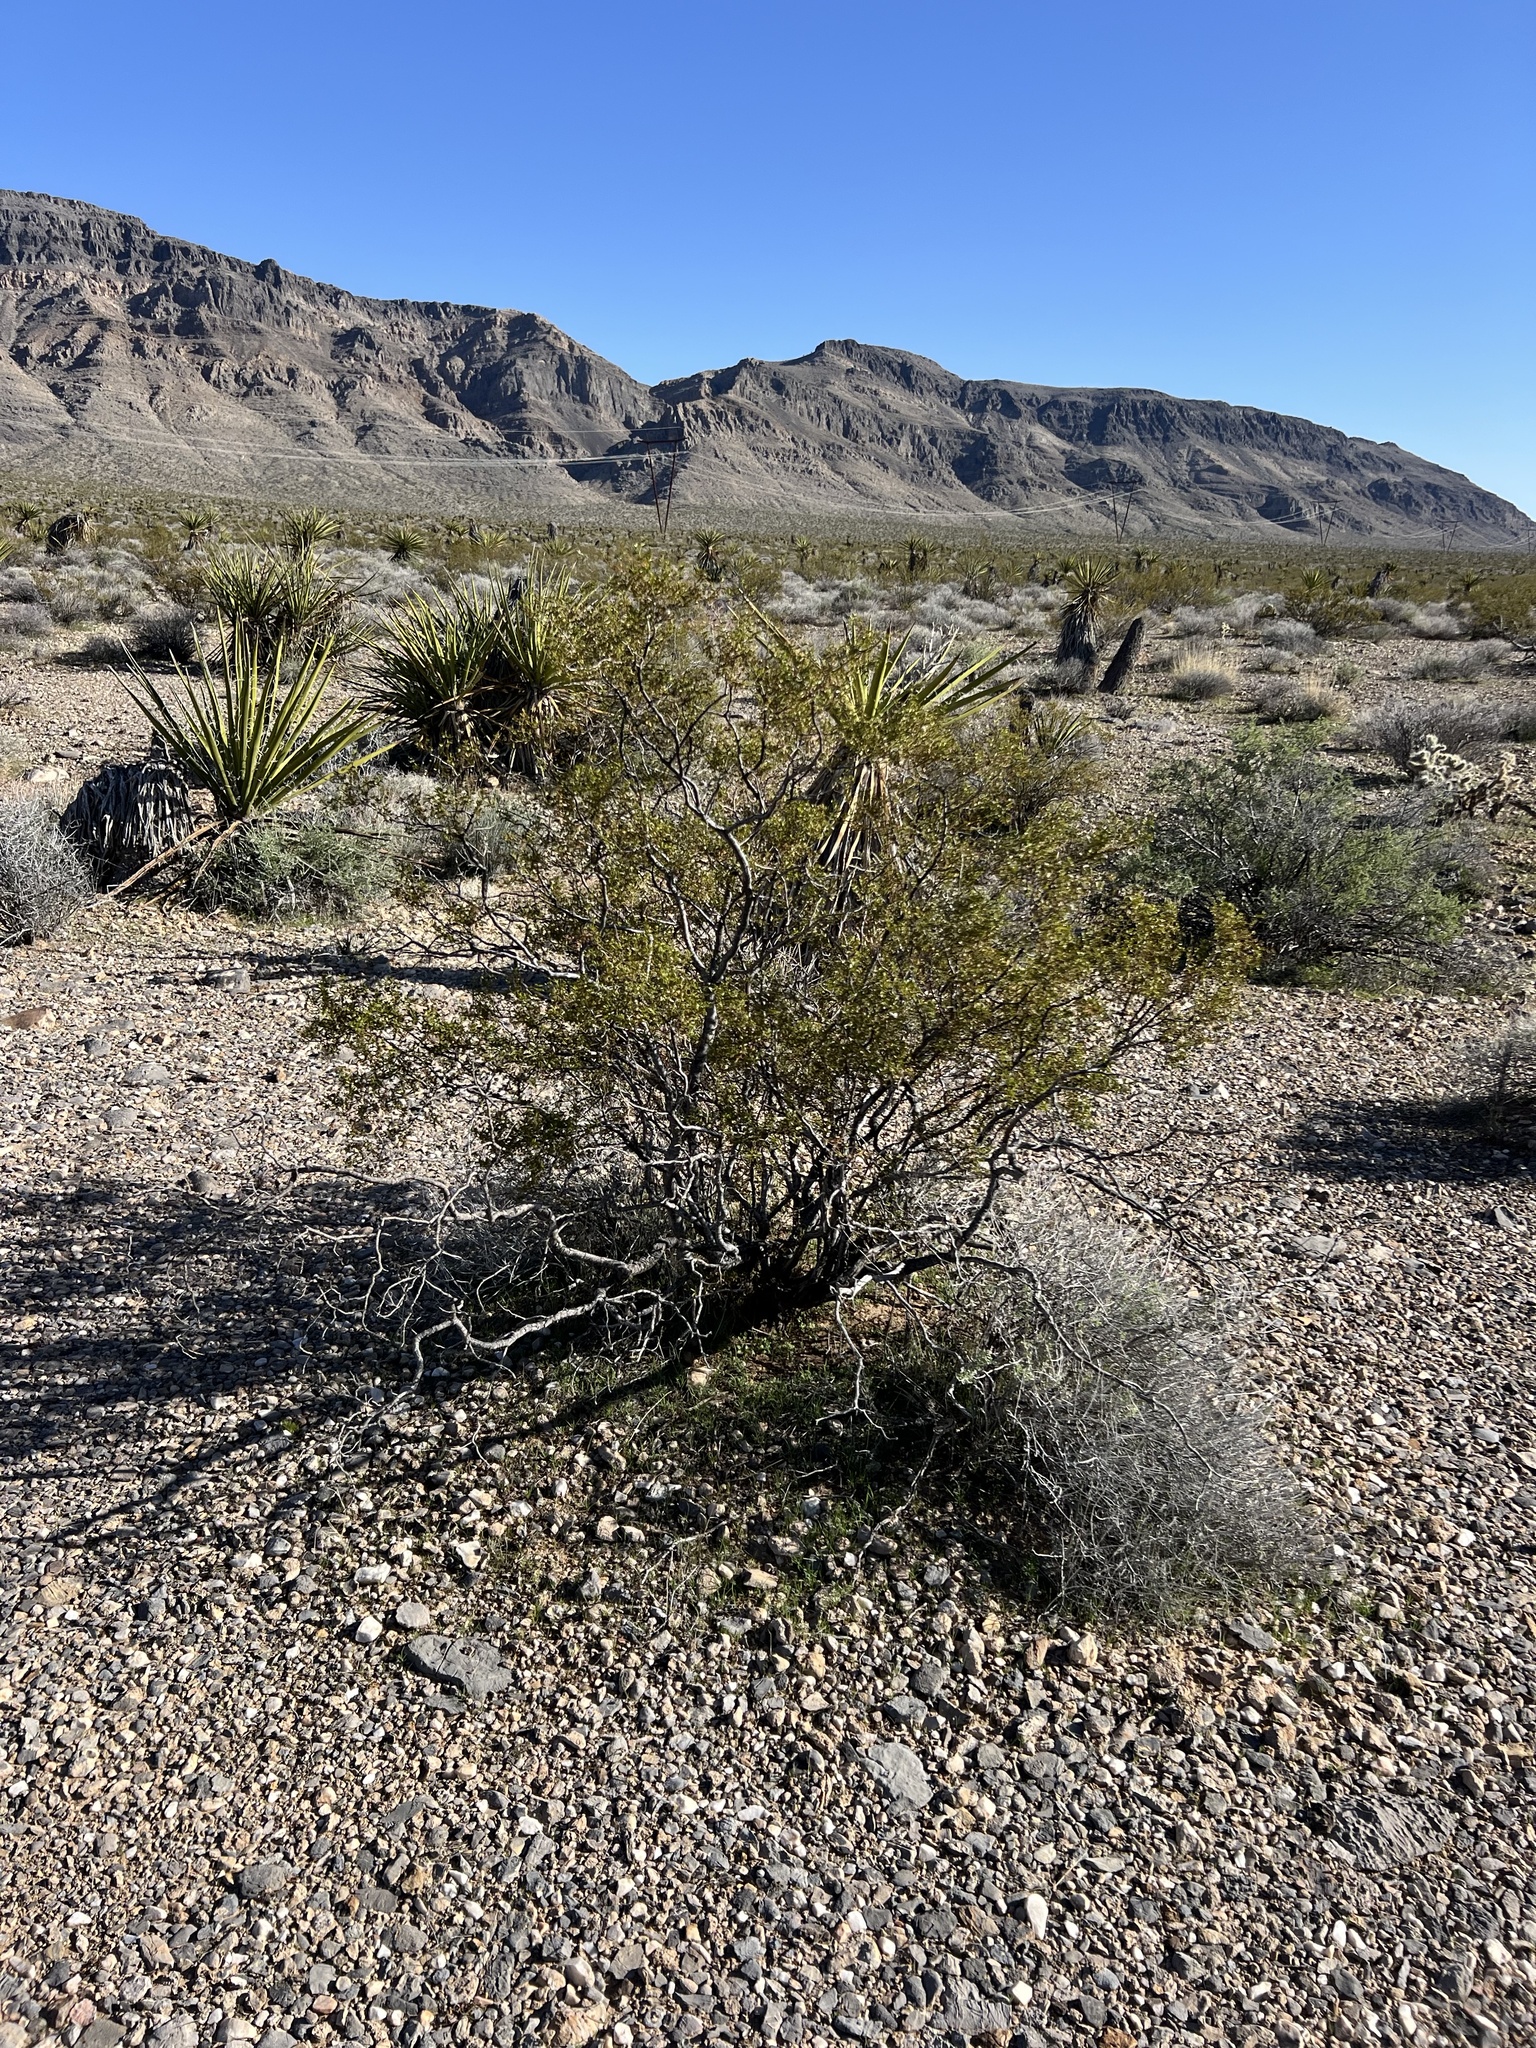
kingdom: Plantae
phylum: Tracheophyta
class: Magnoliopsida
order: Zygophyllales
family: Zygophyllaceae
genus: Larrea
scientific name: Larrea tridentata
